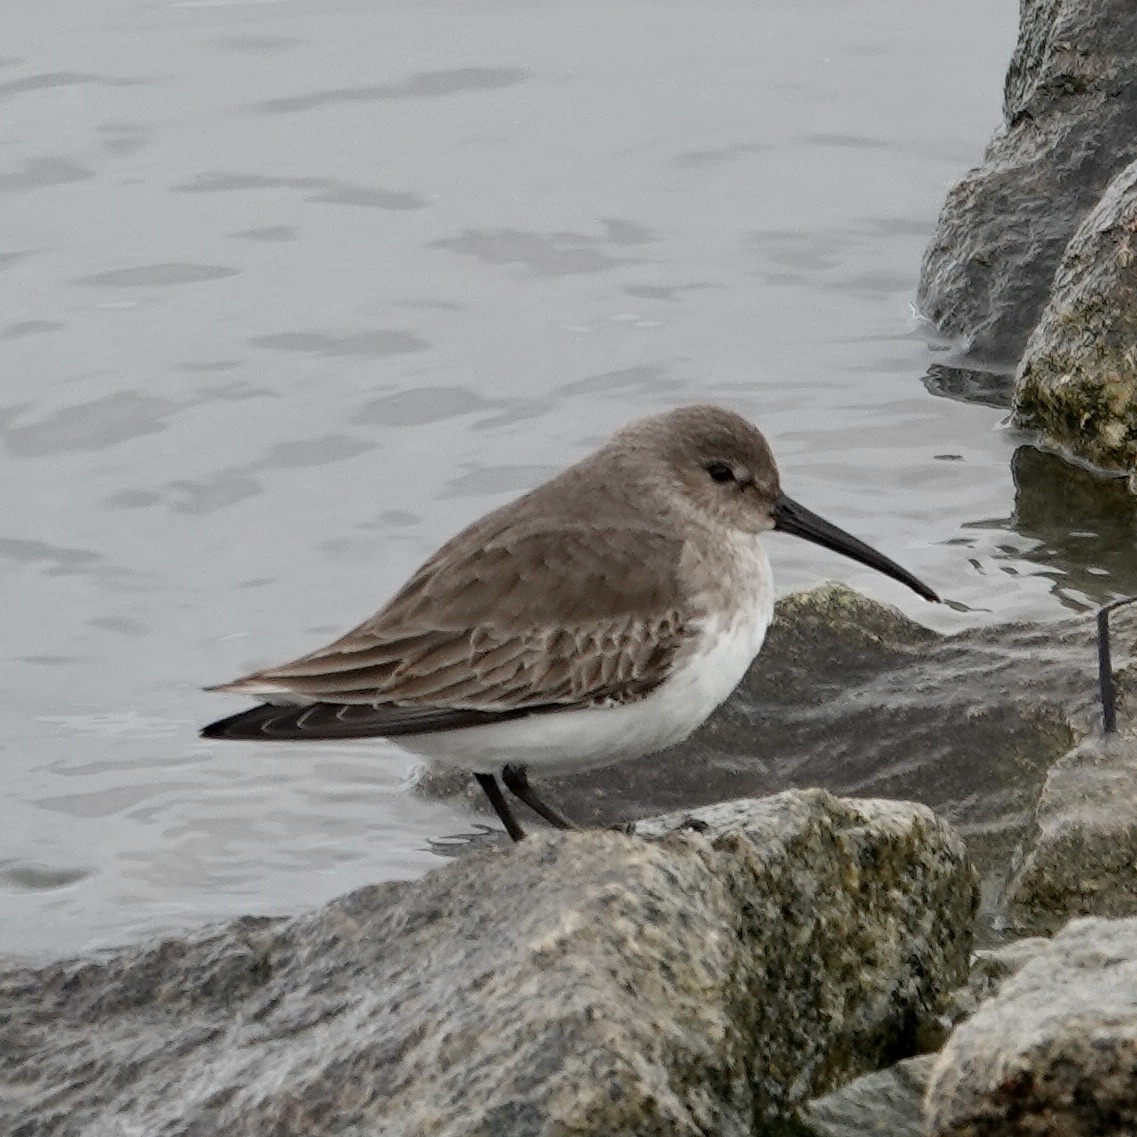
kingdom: Animalia
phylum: Chordata
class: Aves
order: Charadriiformes
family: Scolopacidae
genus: Calidris
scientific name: Calidris alpina
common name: Dunlin
